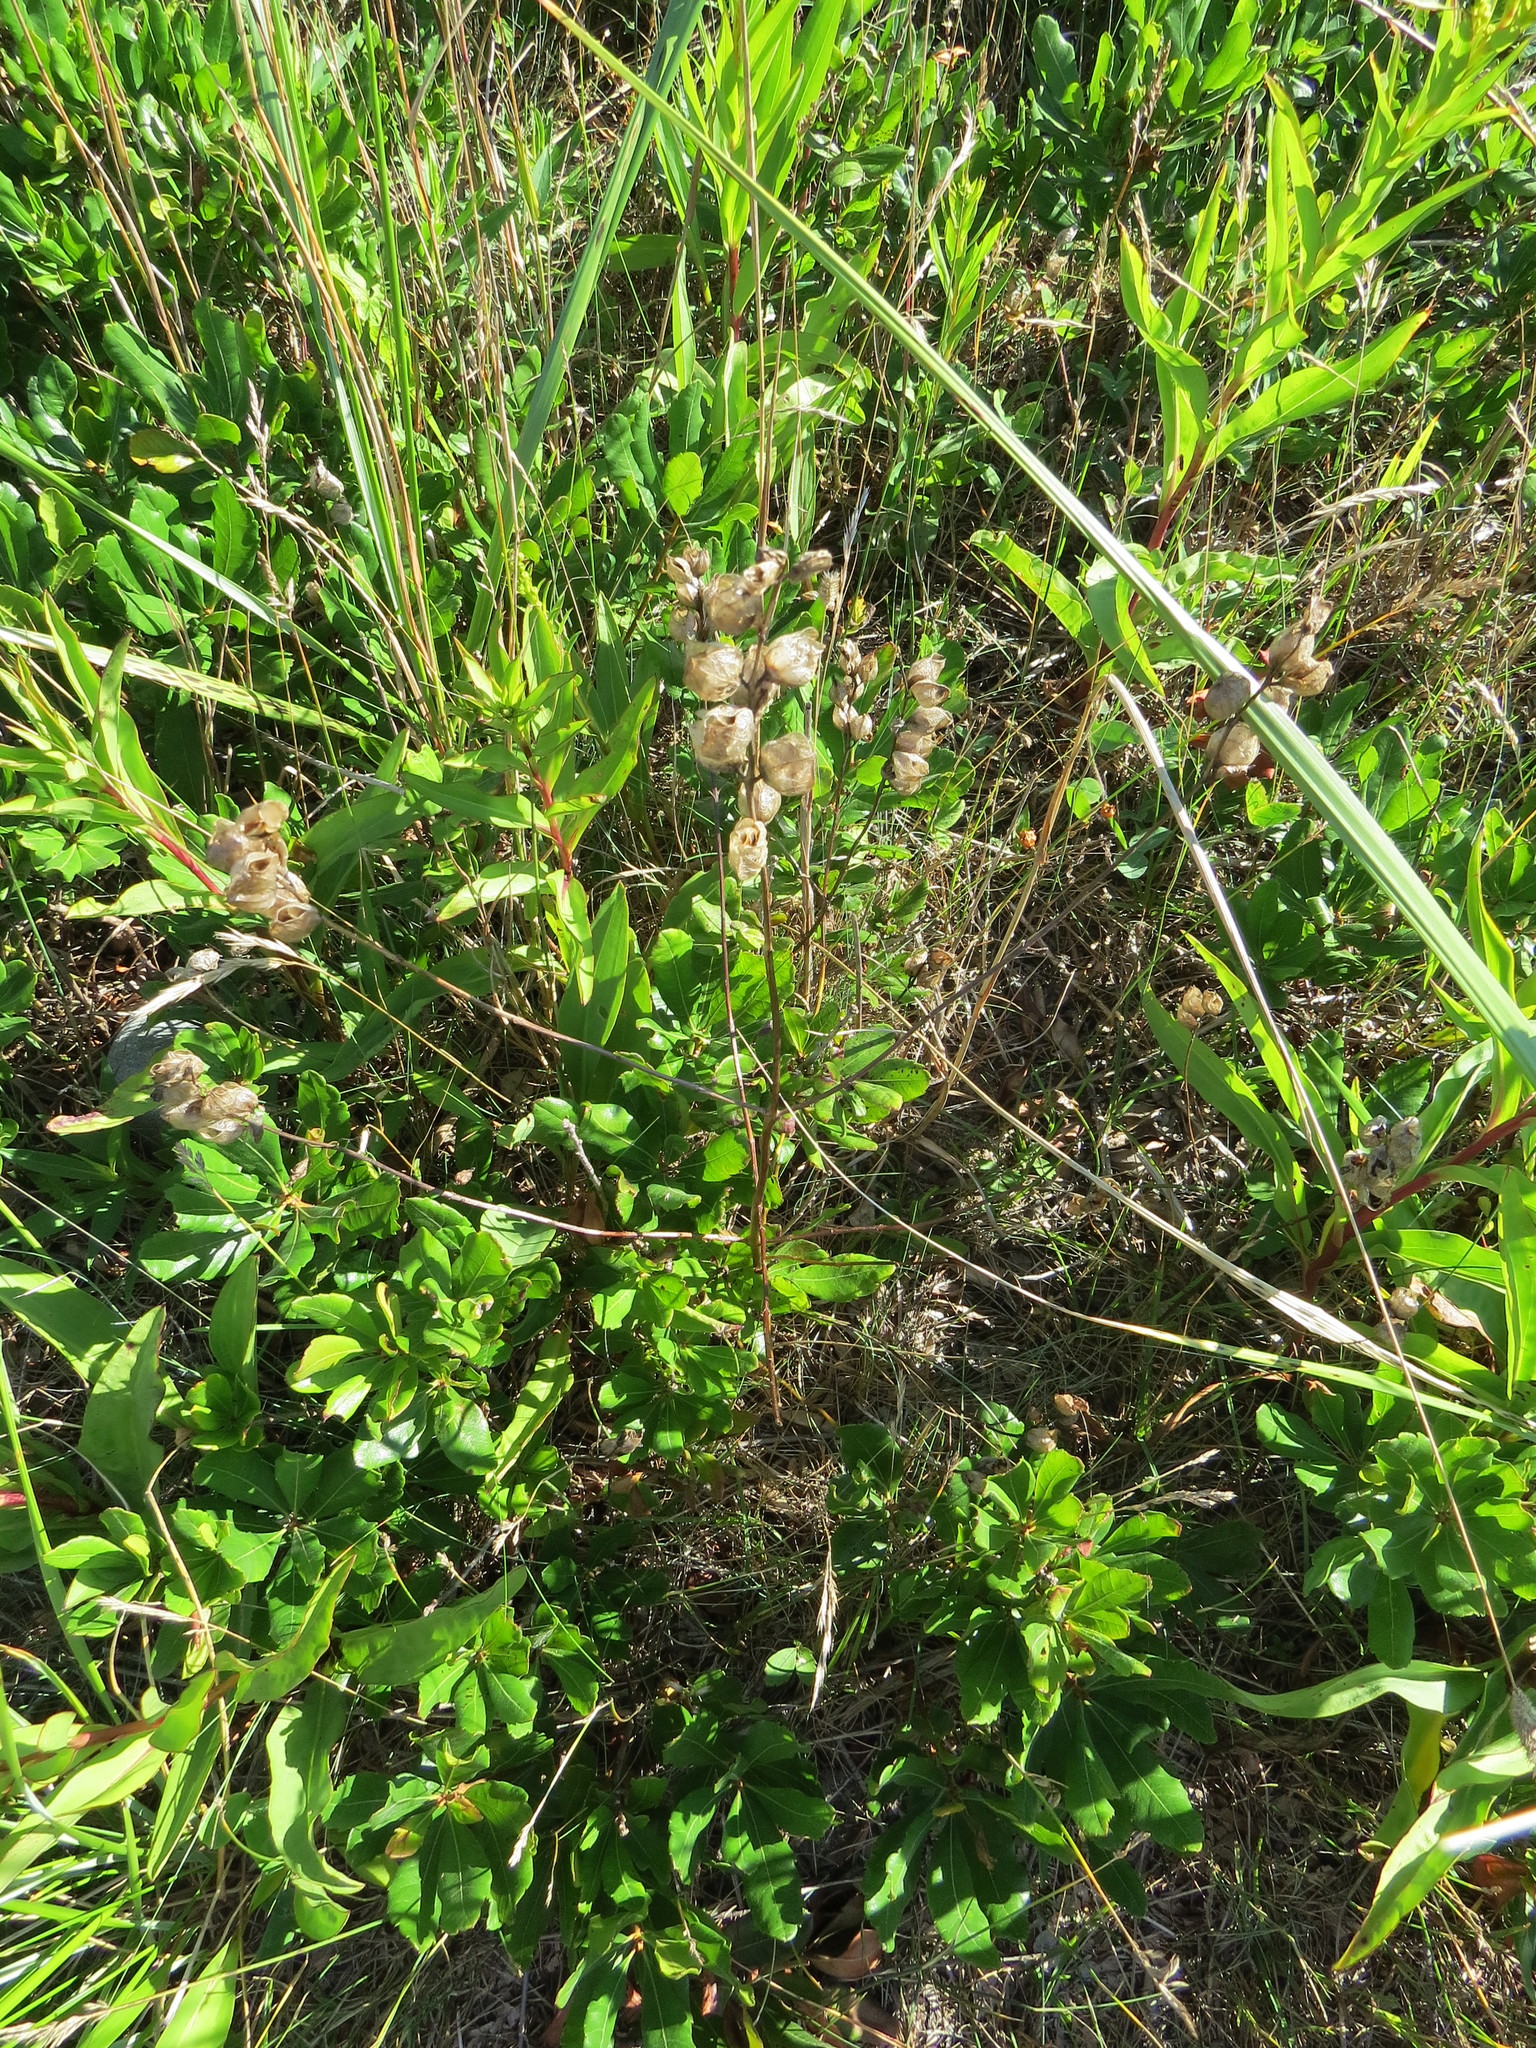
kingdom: Plantae
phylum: Tracheophyta
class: Magnoliopsida
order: Lamiales
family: Orobanchaceae
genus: Rhinanthus
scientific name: Rhinanthus minor
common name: Yellow-rattle
